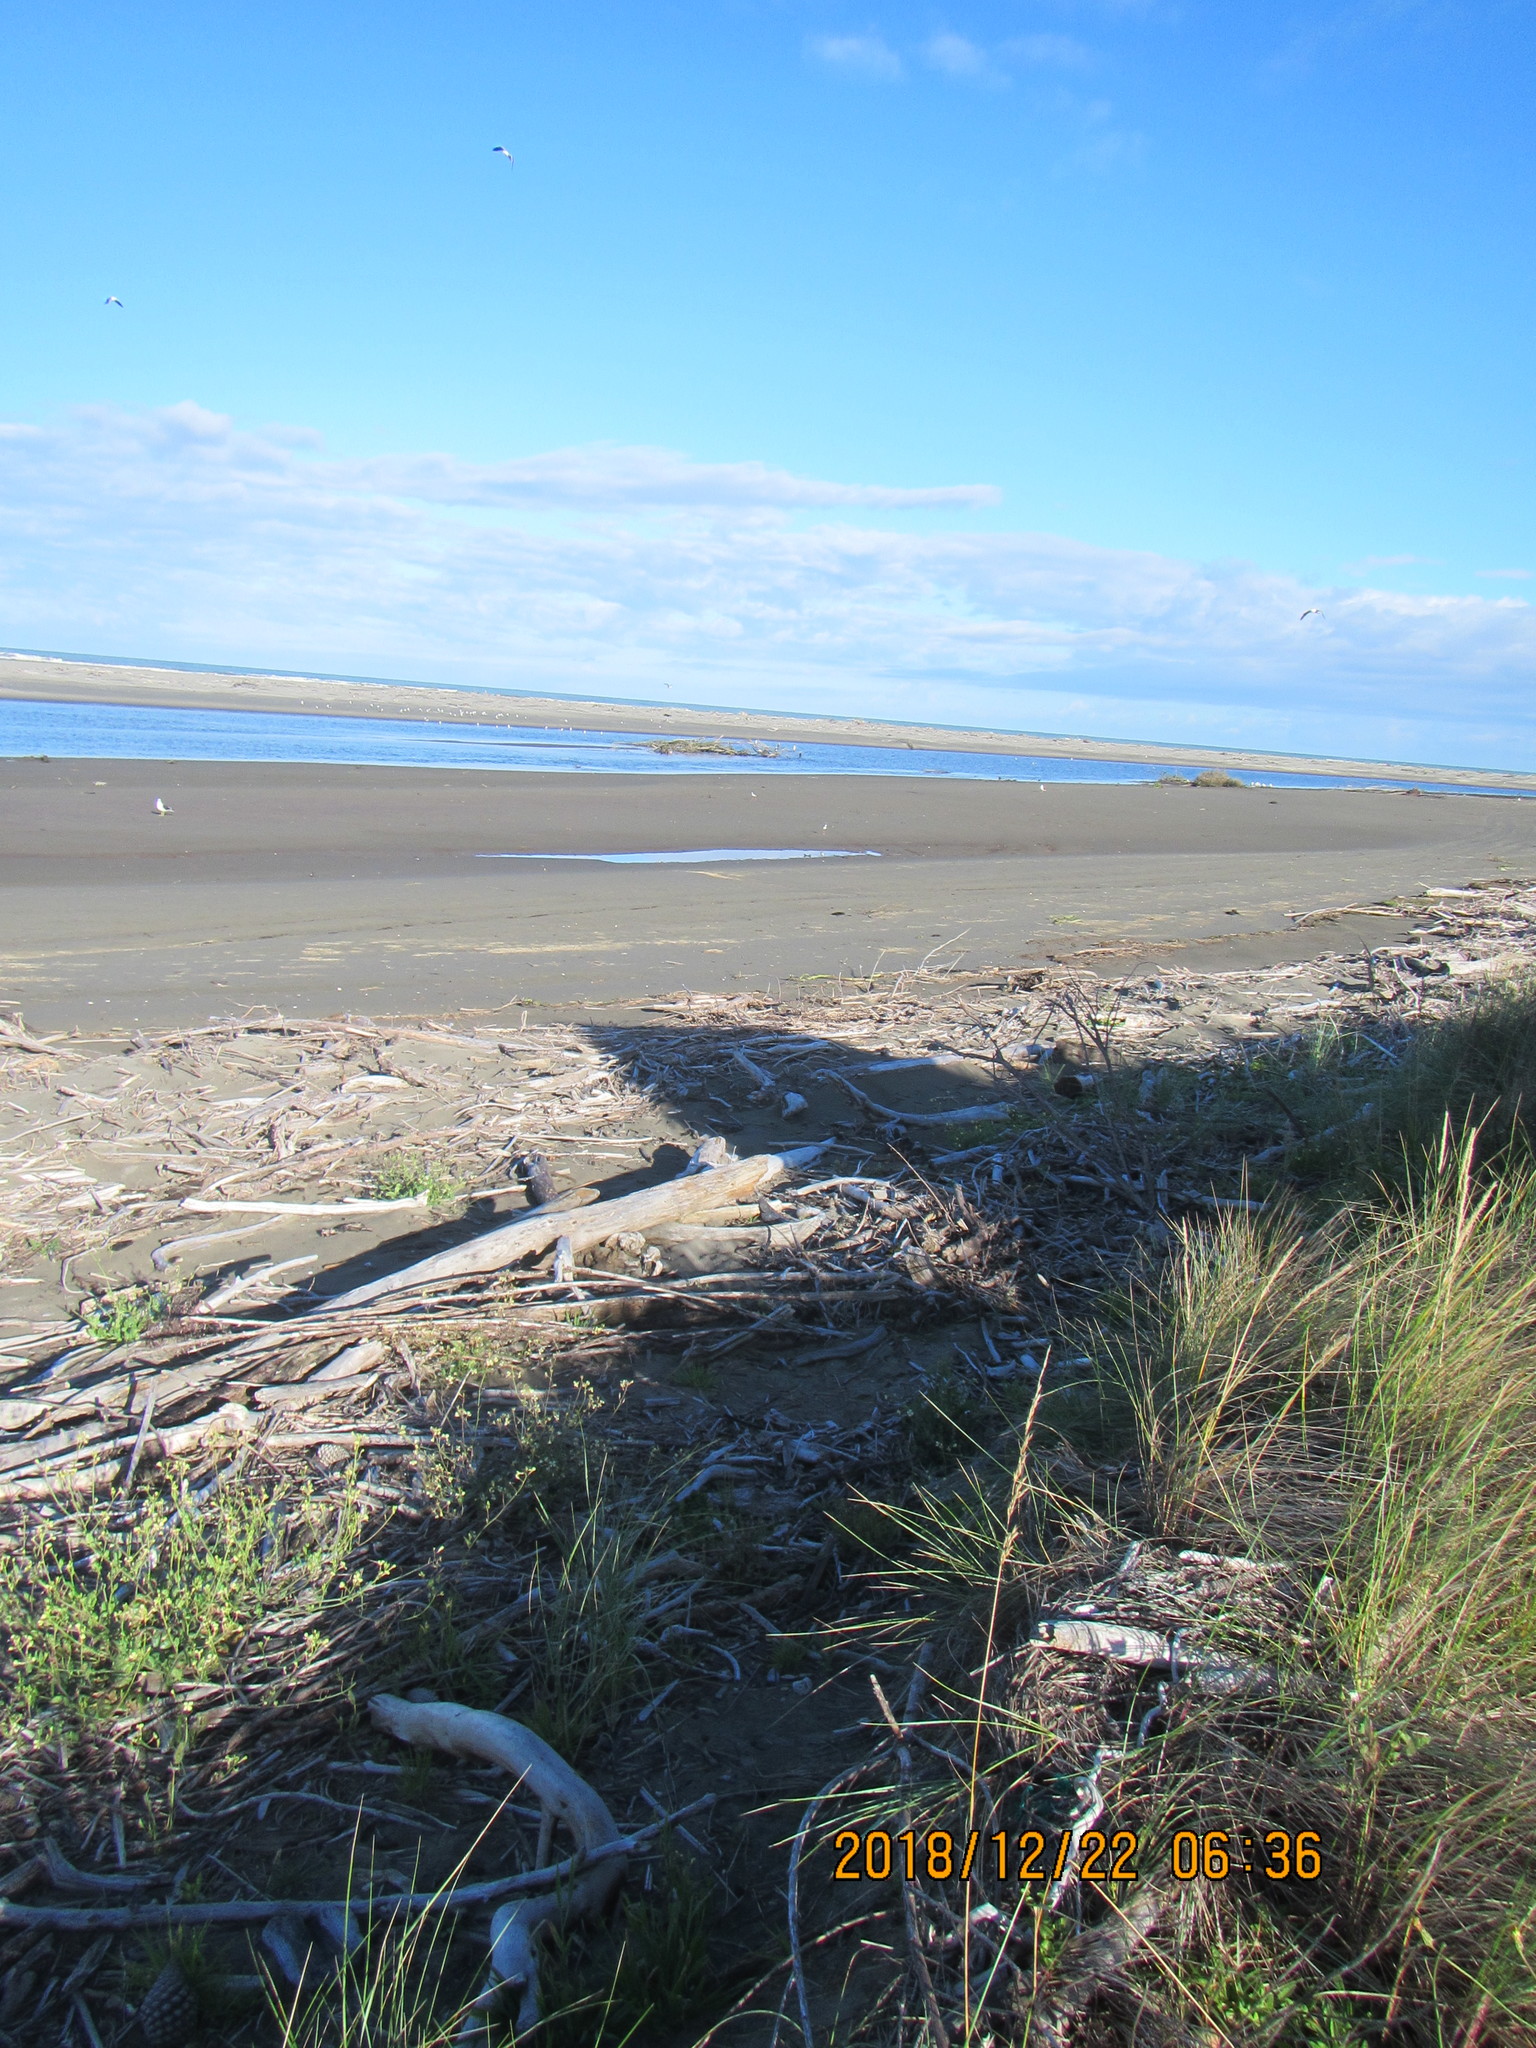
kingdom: Animalia
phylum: Chordata
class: Aves
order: Charadriiformes
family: Recurvirostridae
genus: Himantopus
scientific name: Himantopus leucocephalus
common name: White-headed stilt
